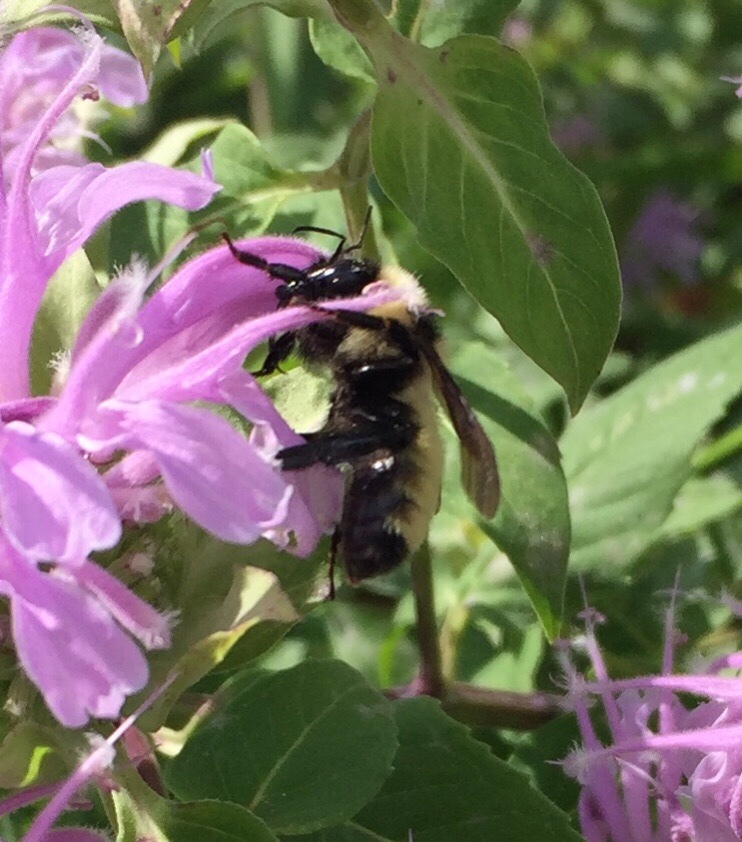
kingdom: Animalia
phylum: Arthropoda
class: Insecta
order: Hymenoptera
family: Apidae
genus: Bombus
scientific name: Bombus fervidus
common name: Yellow bumble bee
